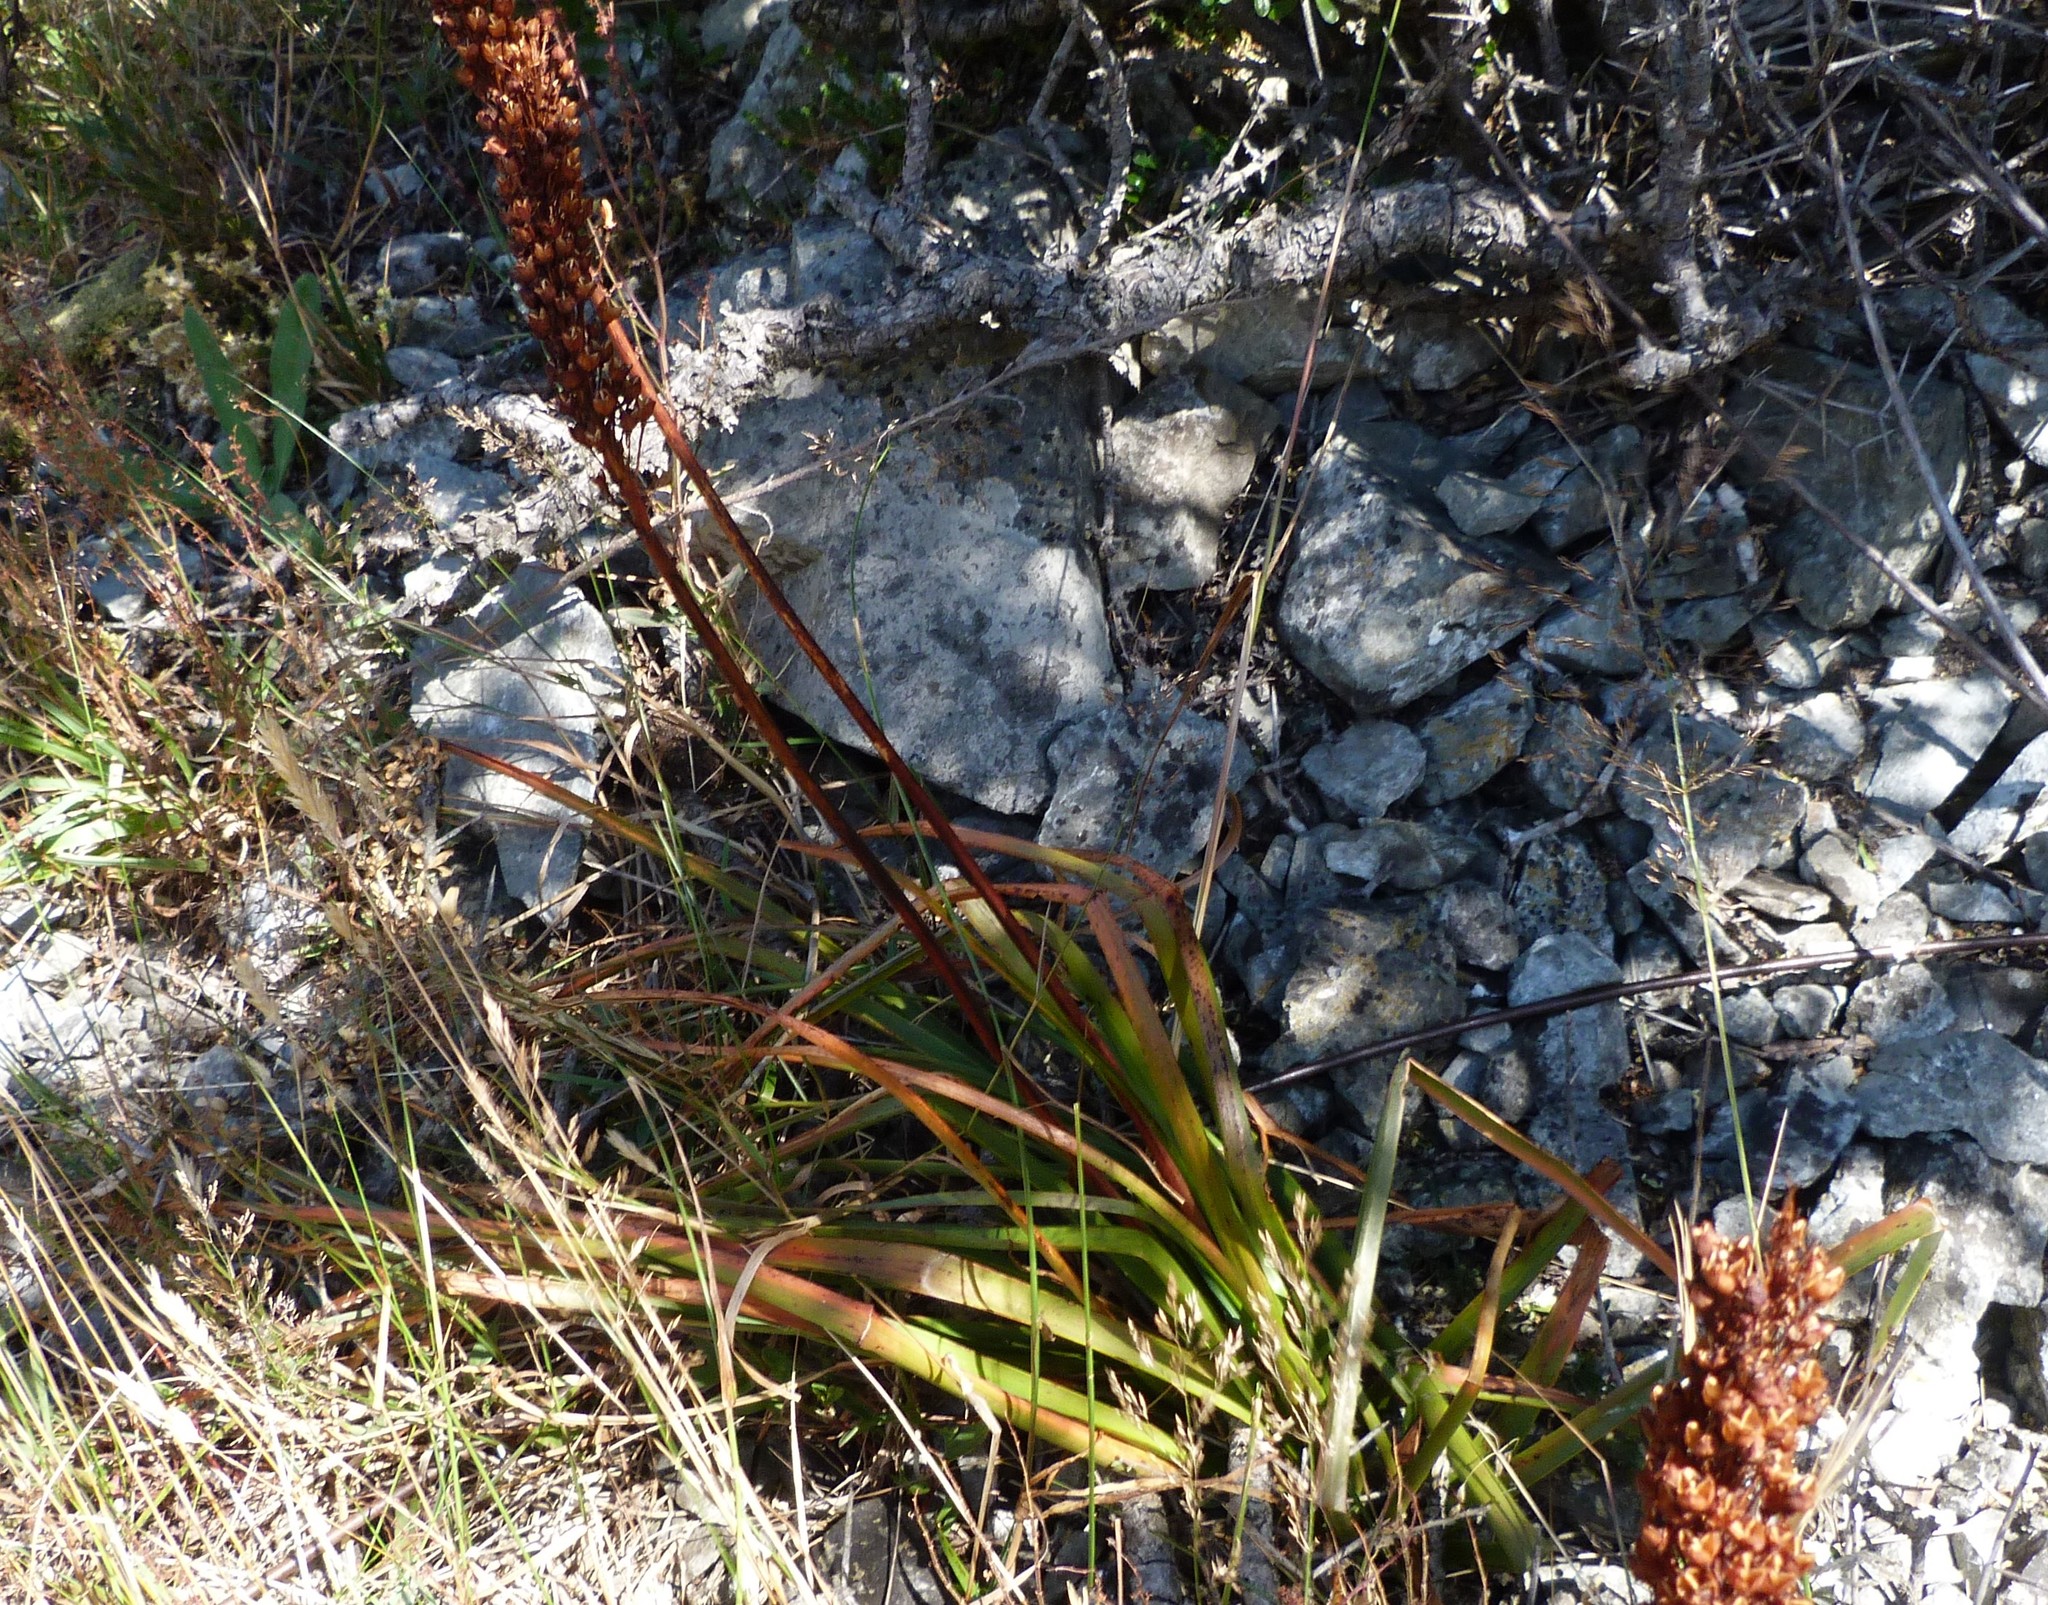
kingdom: Plantae
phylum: Tracheophyta
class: Liliopsida
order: Asparagales
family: Asphodelaceae
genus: Bulbinella
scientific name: Bulbinella angustifolia
